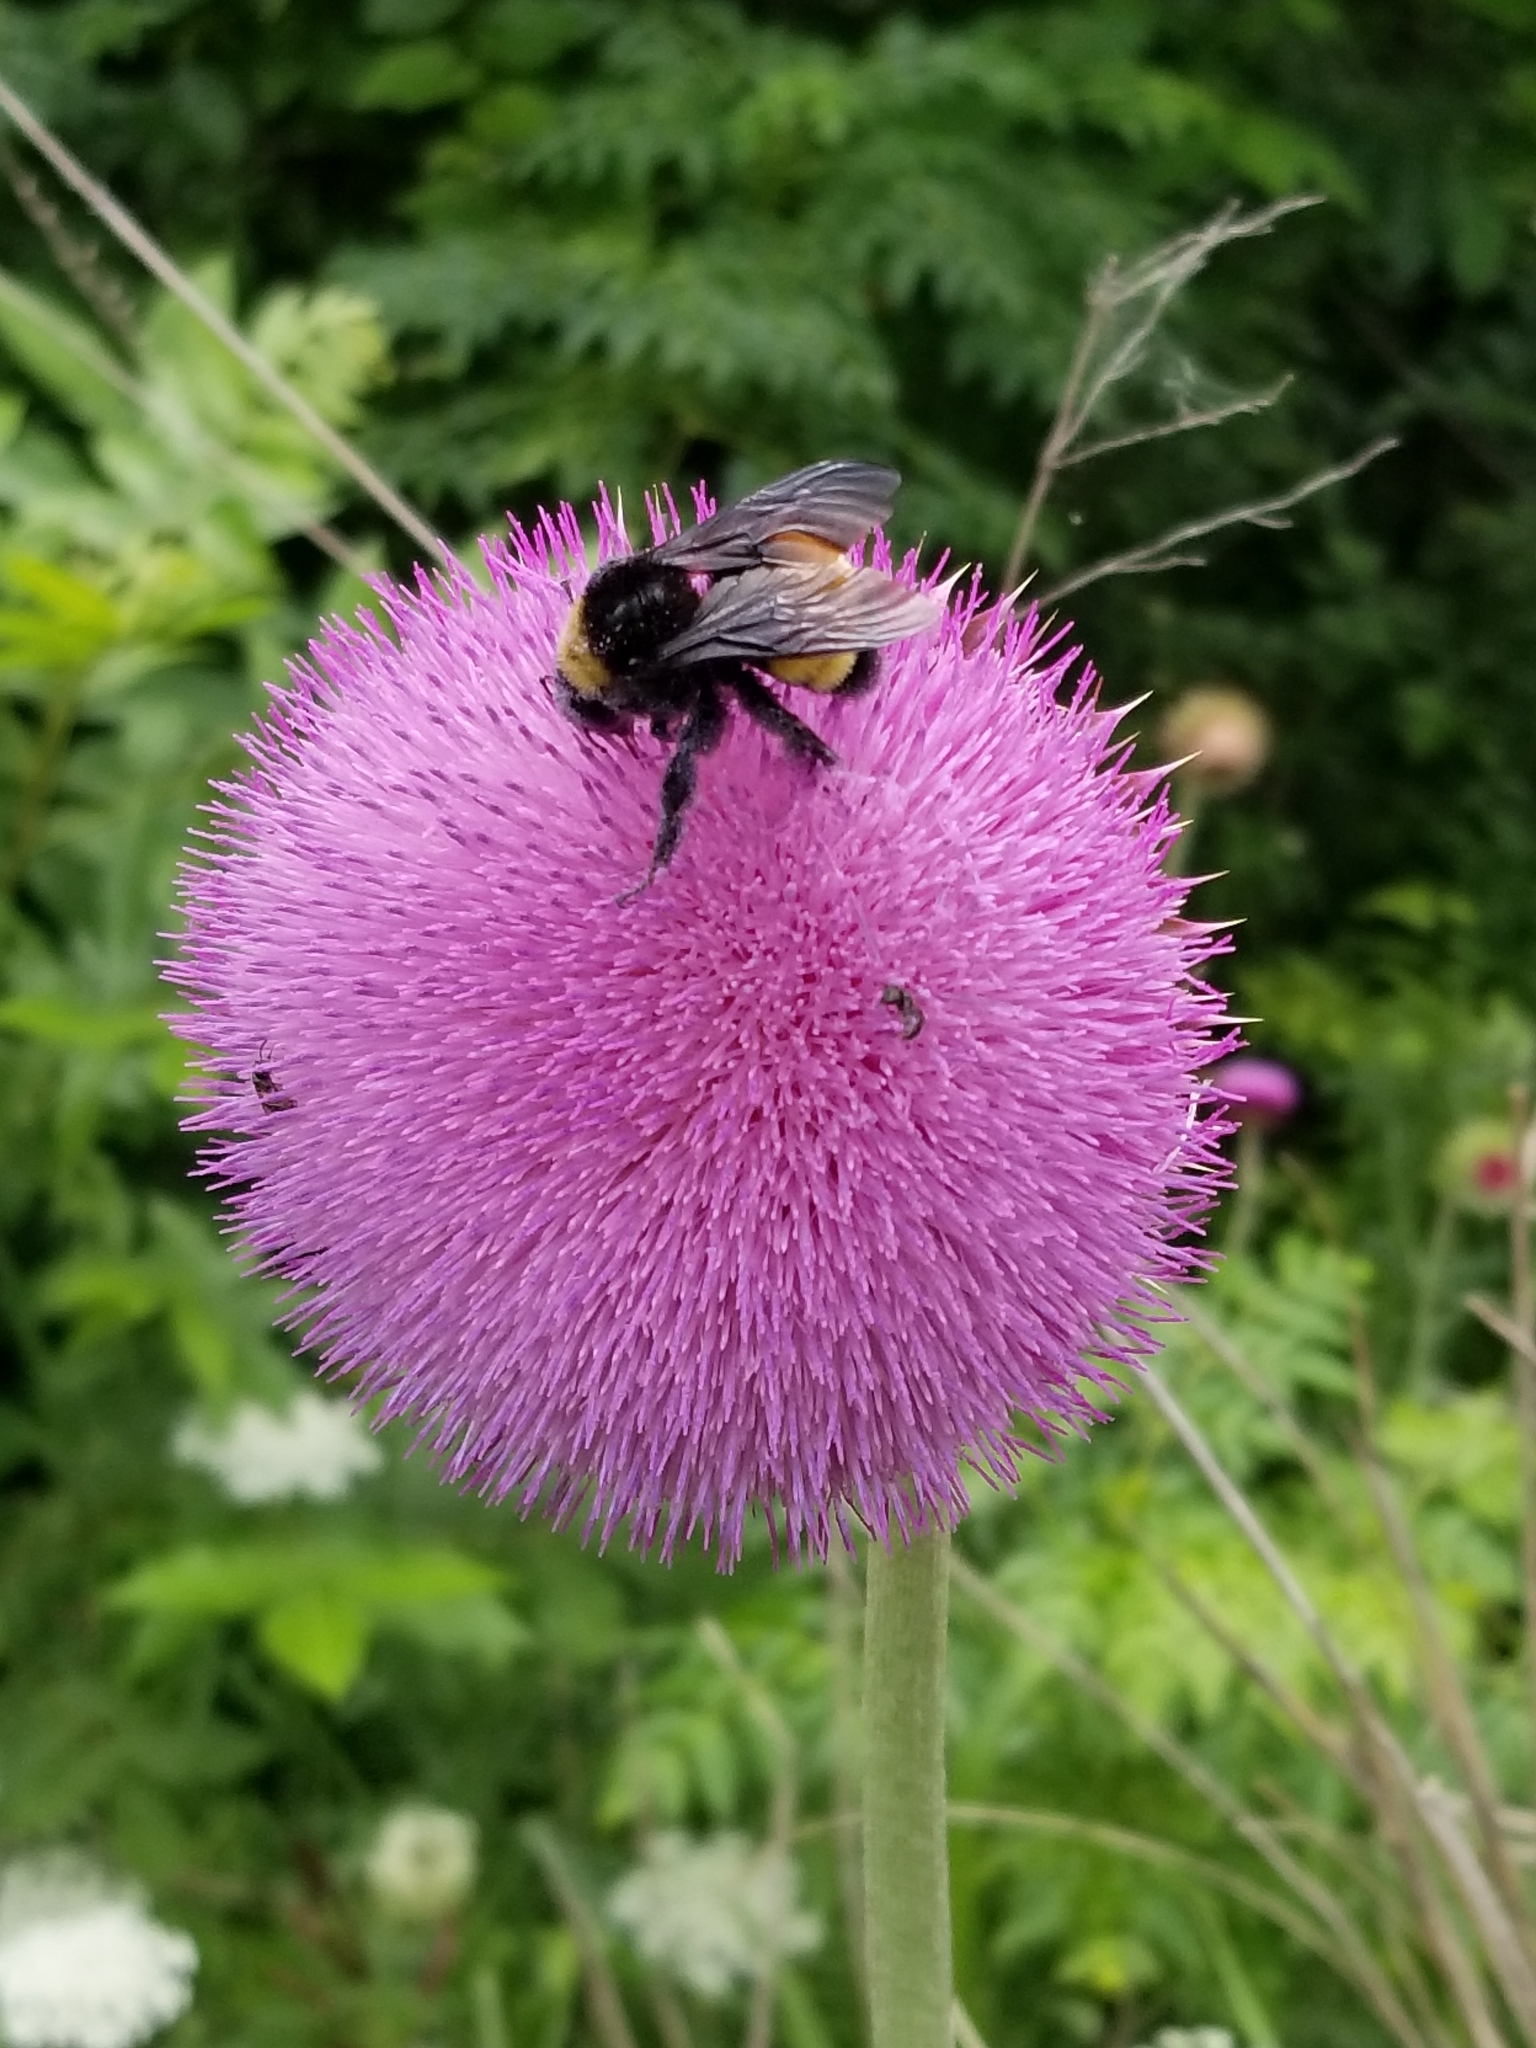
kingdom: Animalia
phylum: Arthropoda
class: Insecta
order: Hymenoptera
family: Apidae
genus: Bombus
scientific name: Bombus pensylvanicus
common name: Bumble bee
